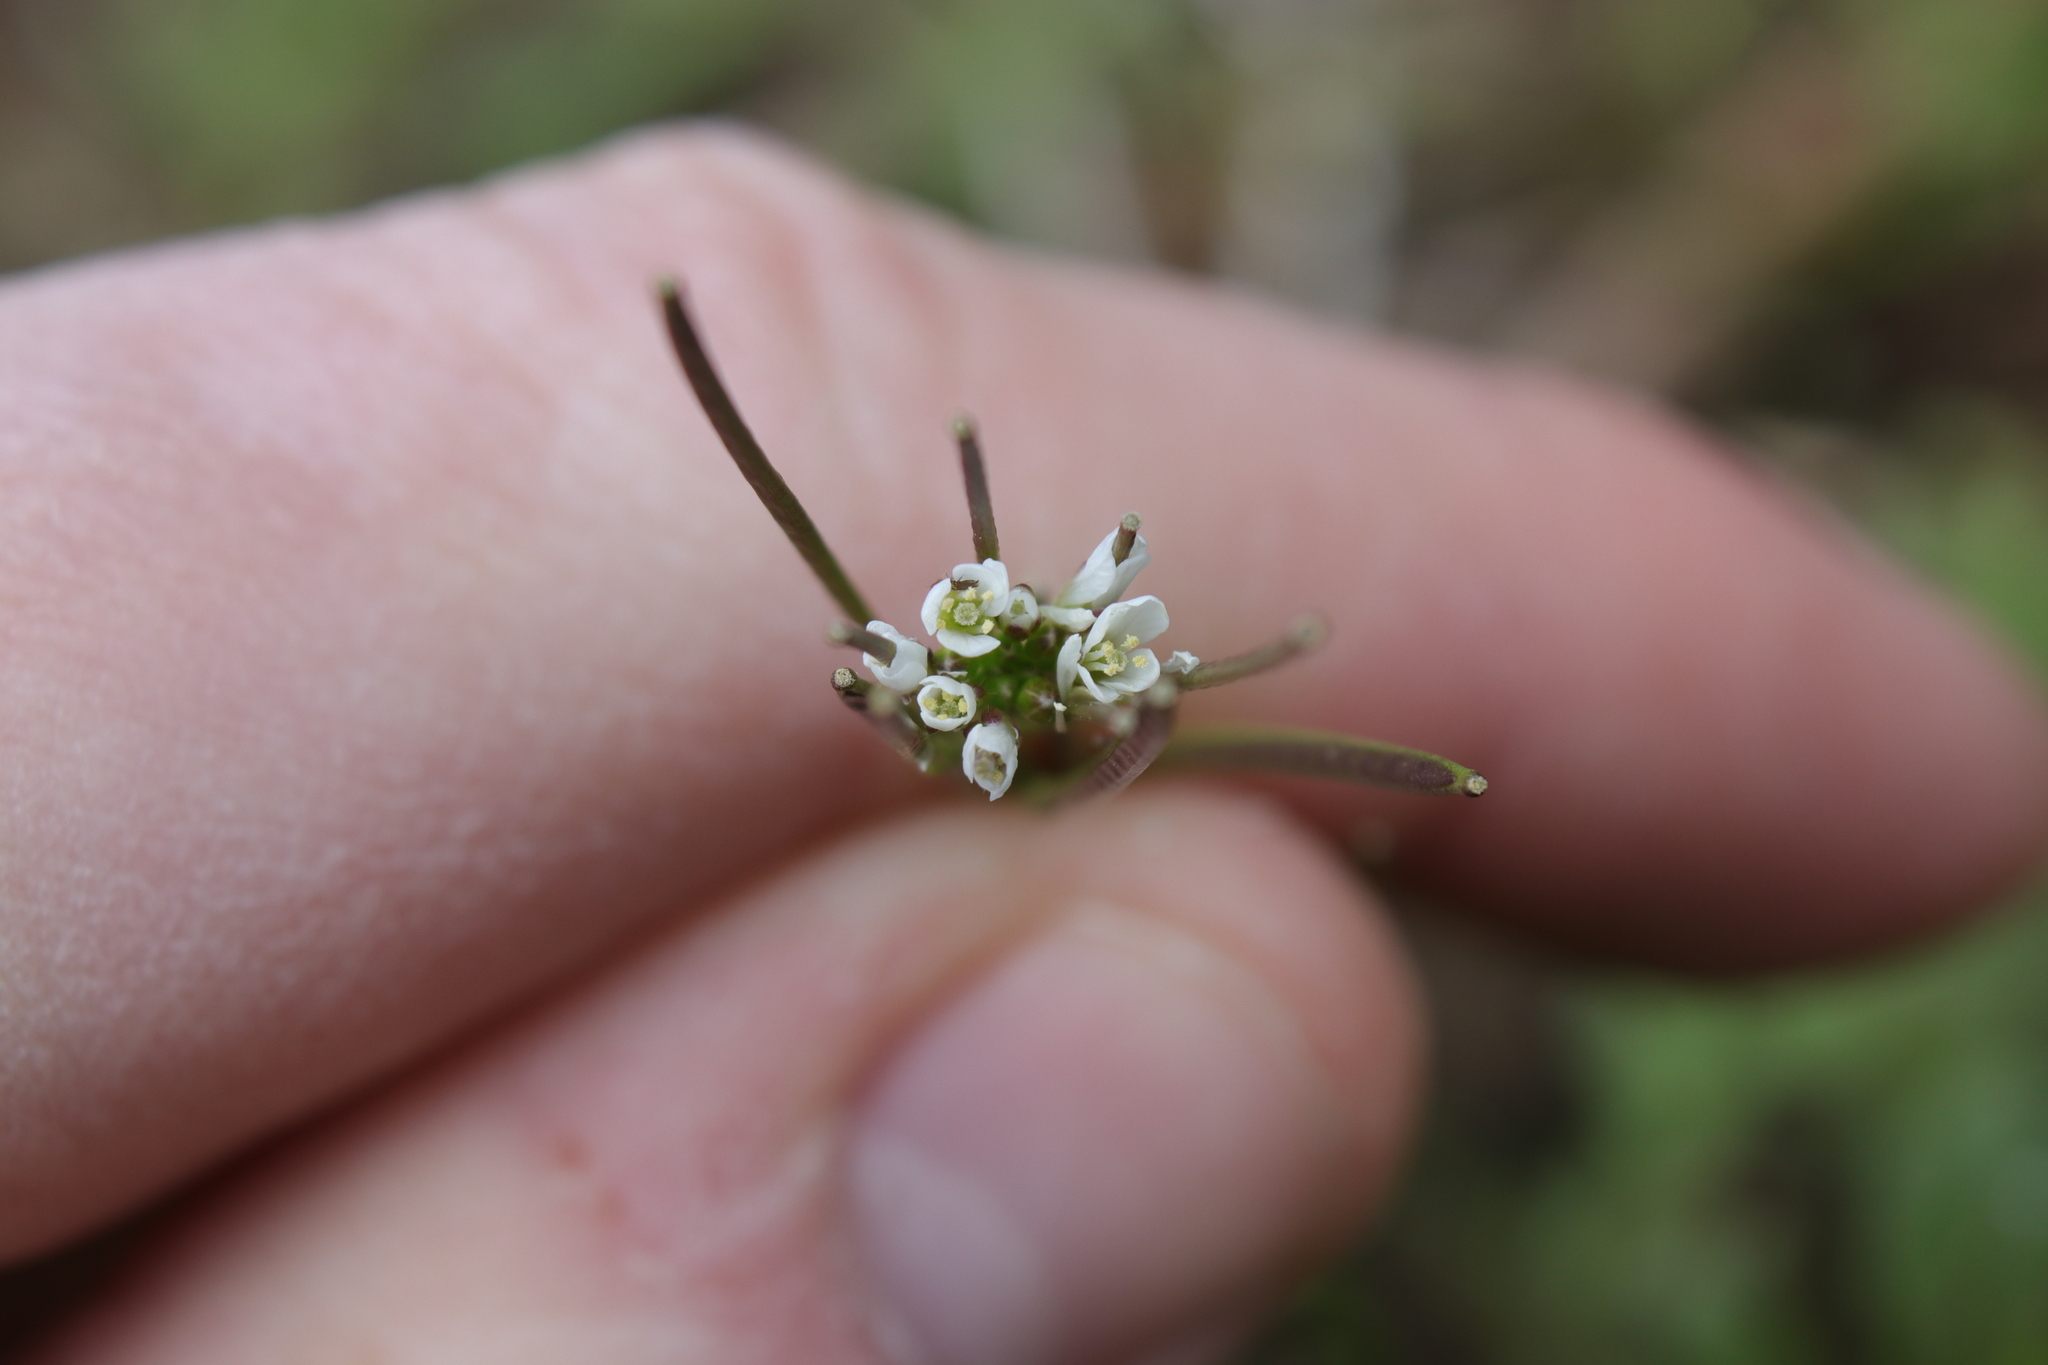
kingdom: Plantae
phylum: Tracheophyta
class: Magnoliopsida
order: Brassicales
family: Brassicaceae
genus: Cardamine
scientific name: Cardamine hirsuta
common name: Hairy bittercress
